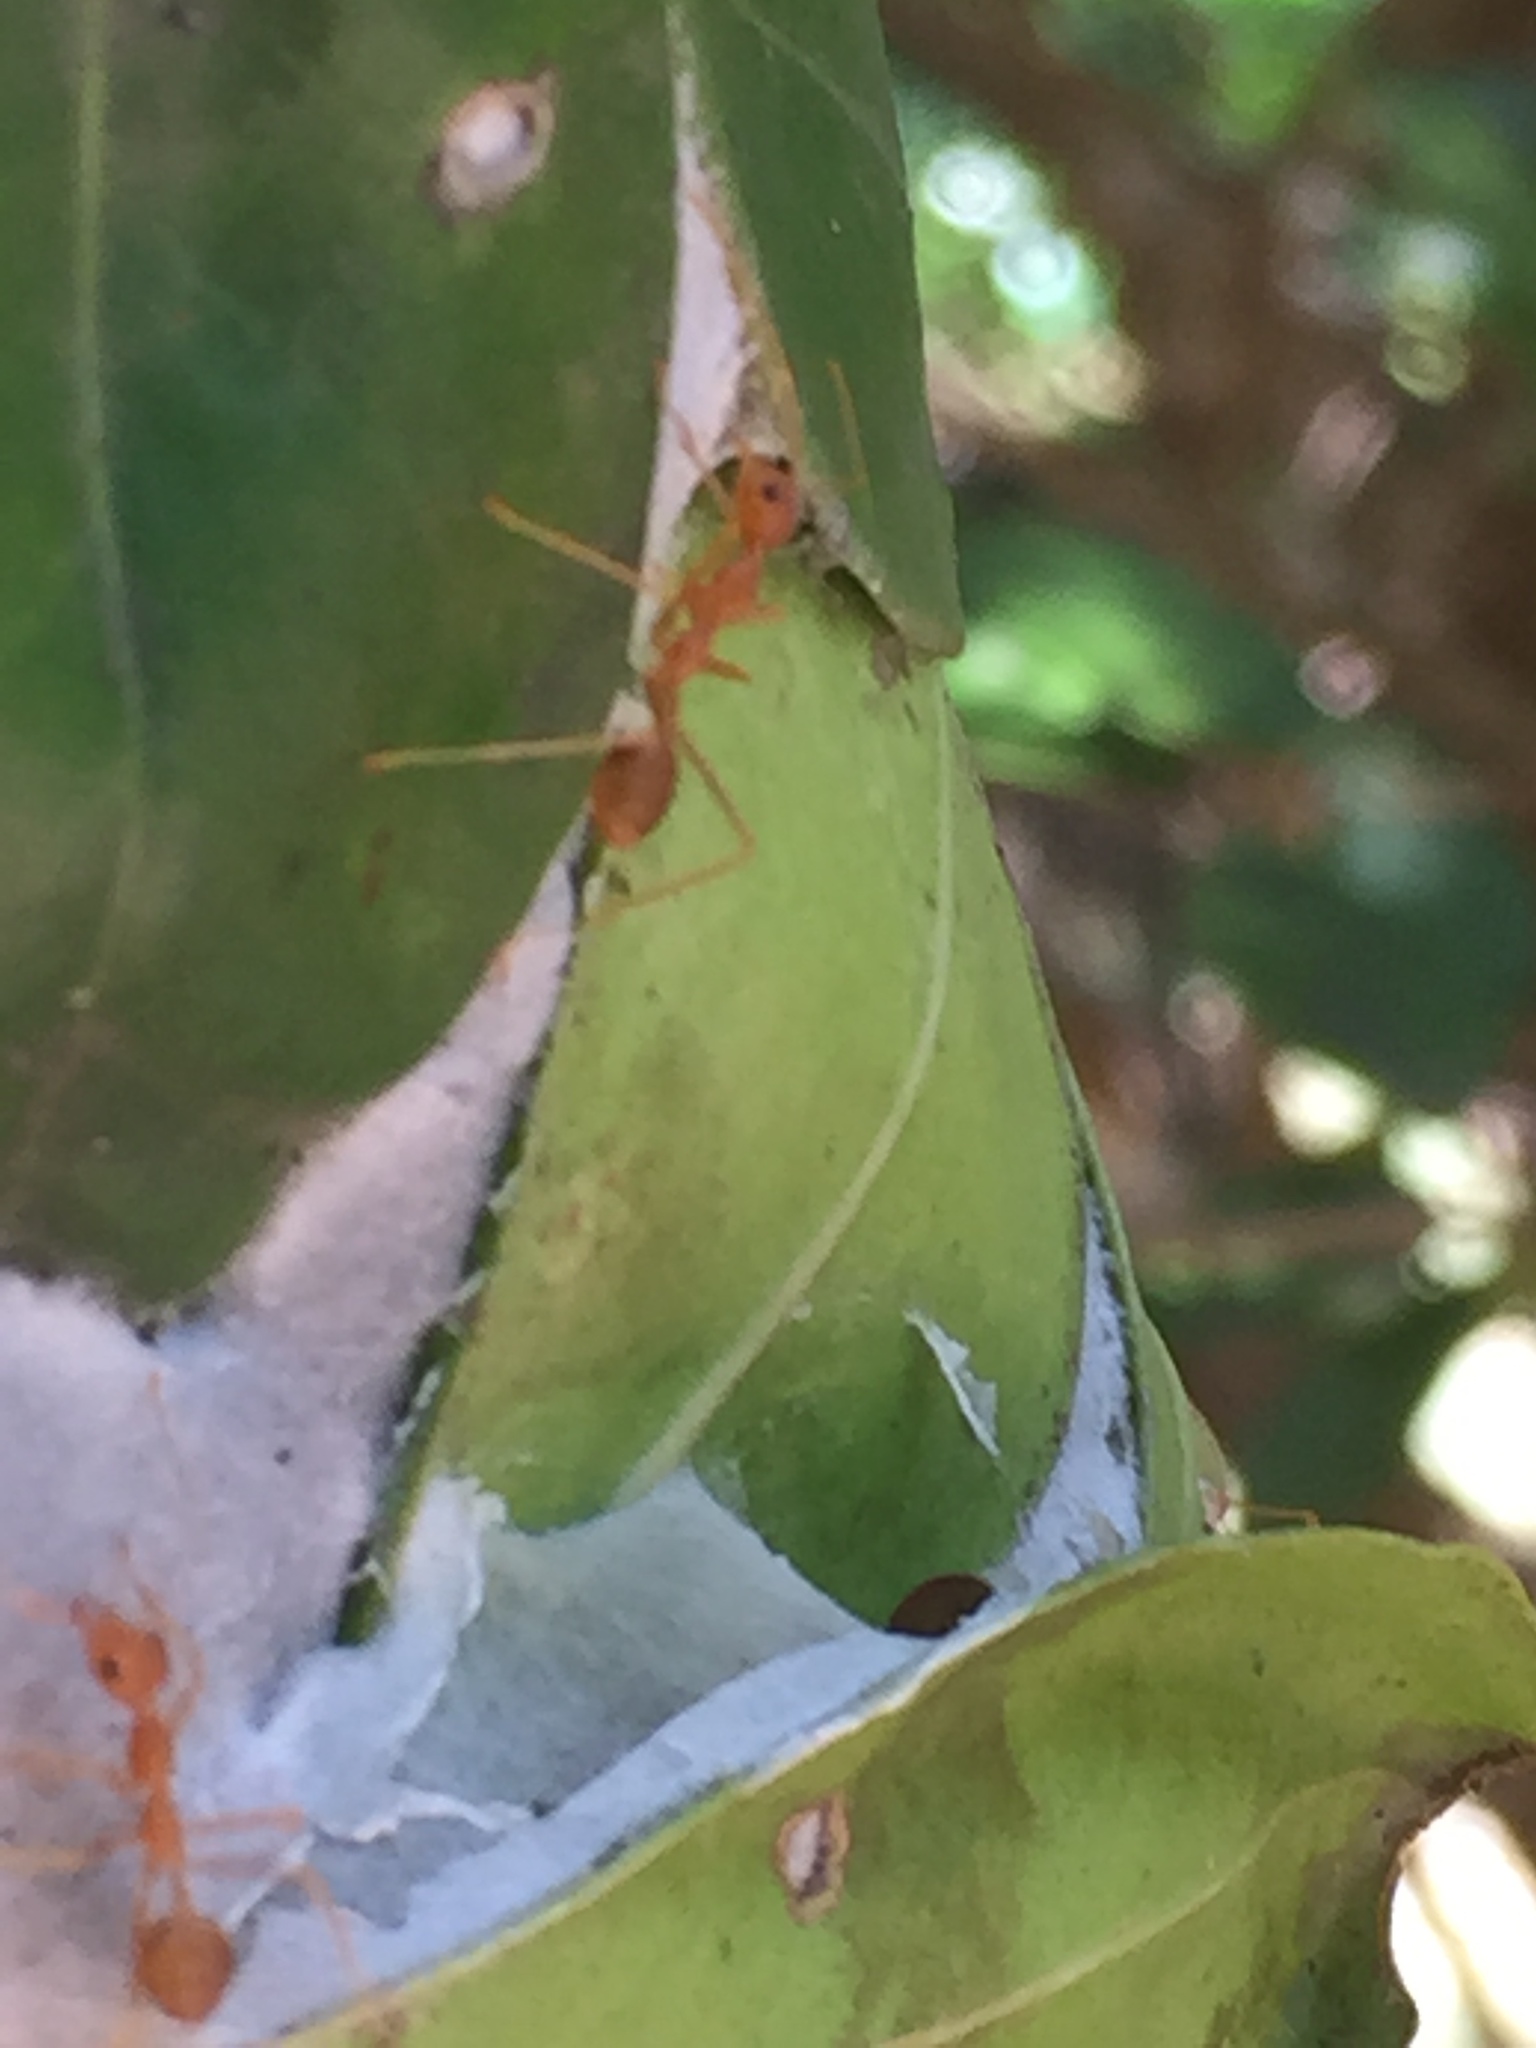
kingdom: Animalia
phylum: Arthropoda
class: Insecta
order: Hymenoptera
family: Formicidae
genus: Oecophylla
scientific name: Oecophylla smaragdina
